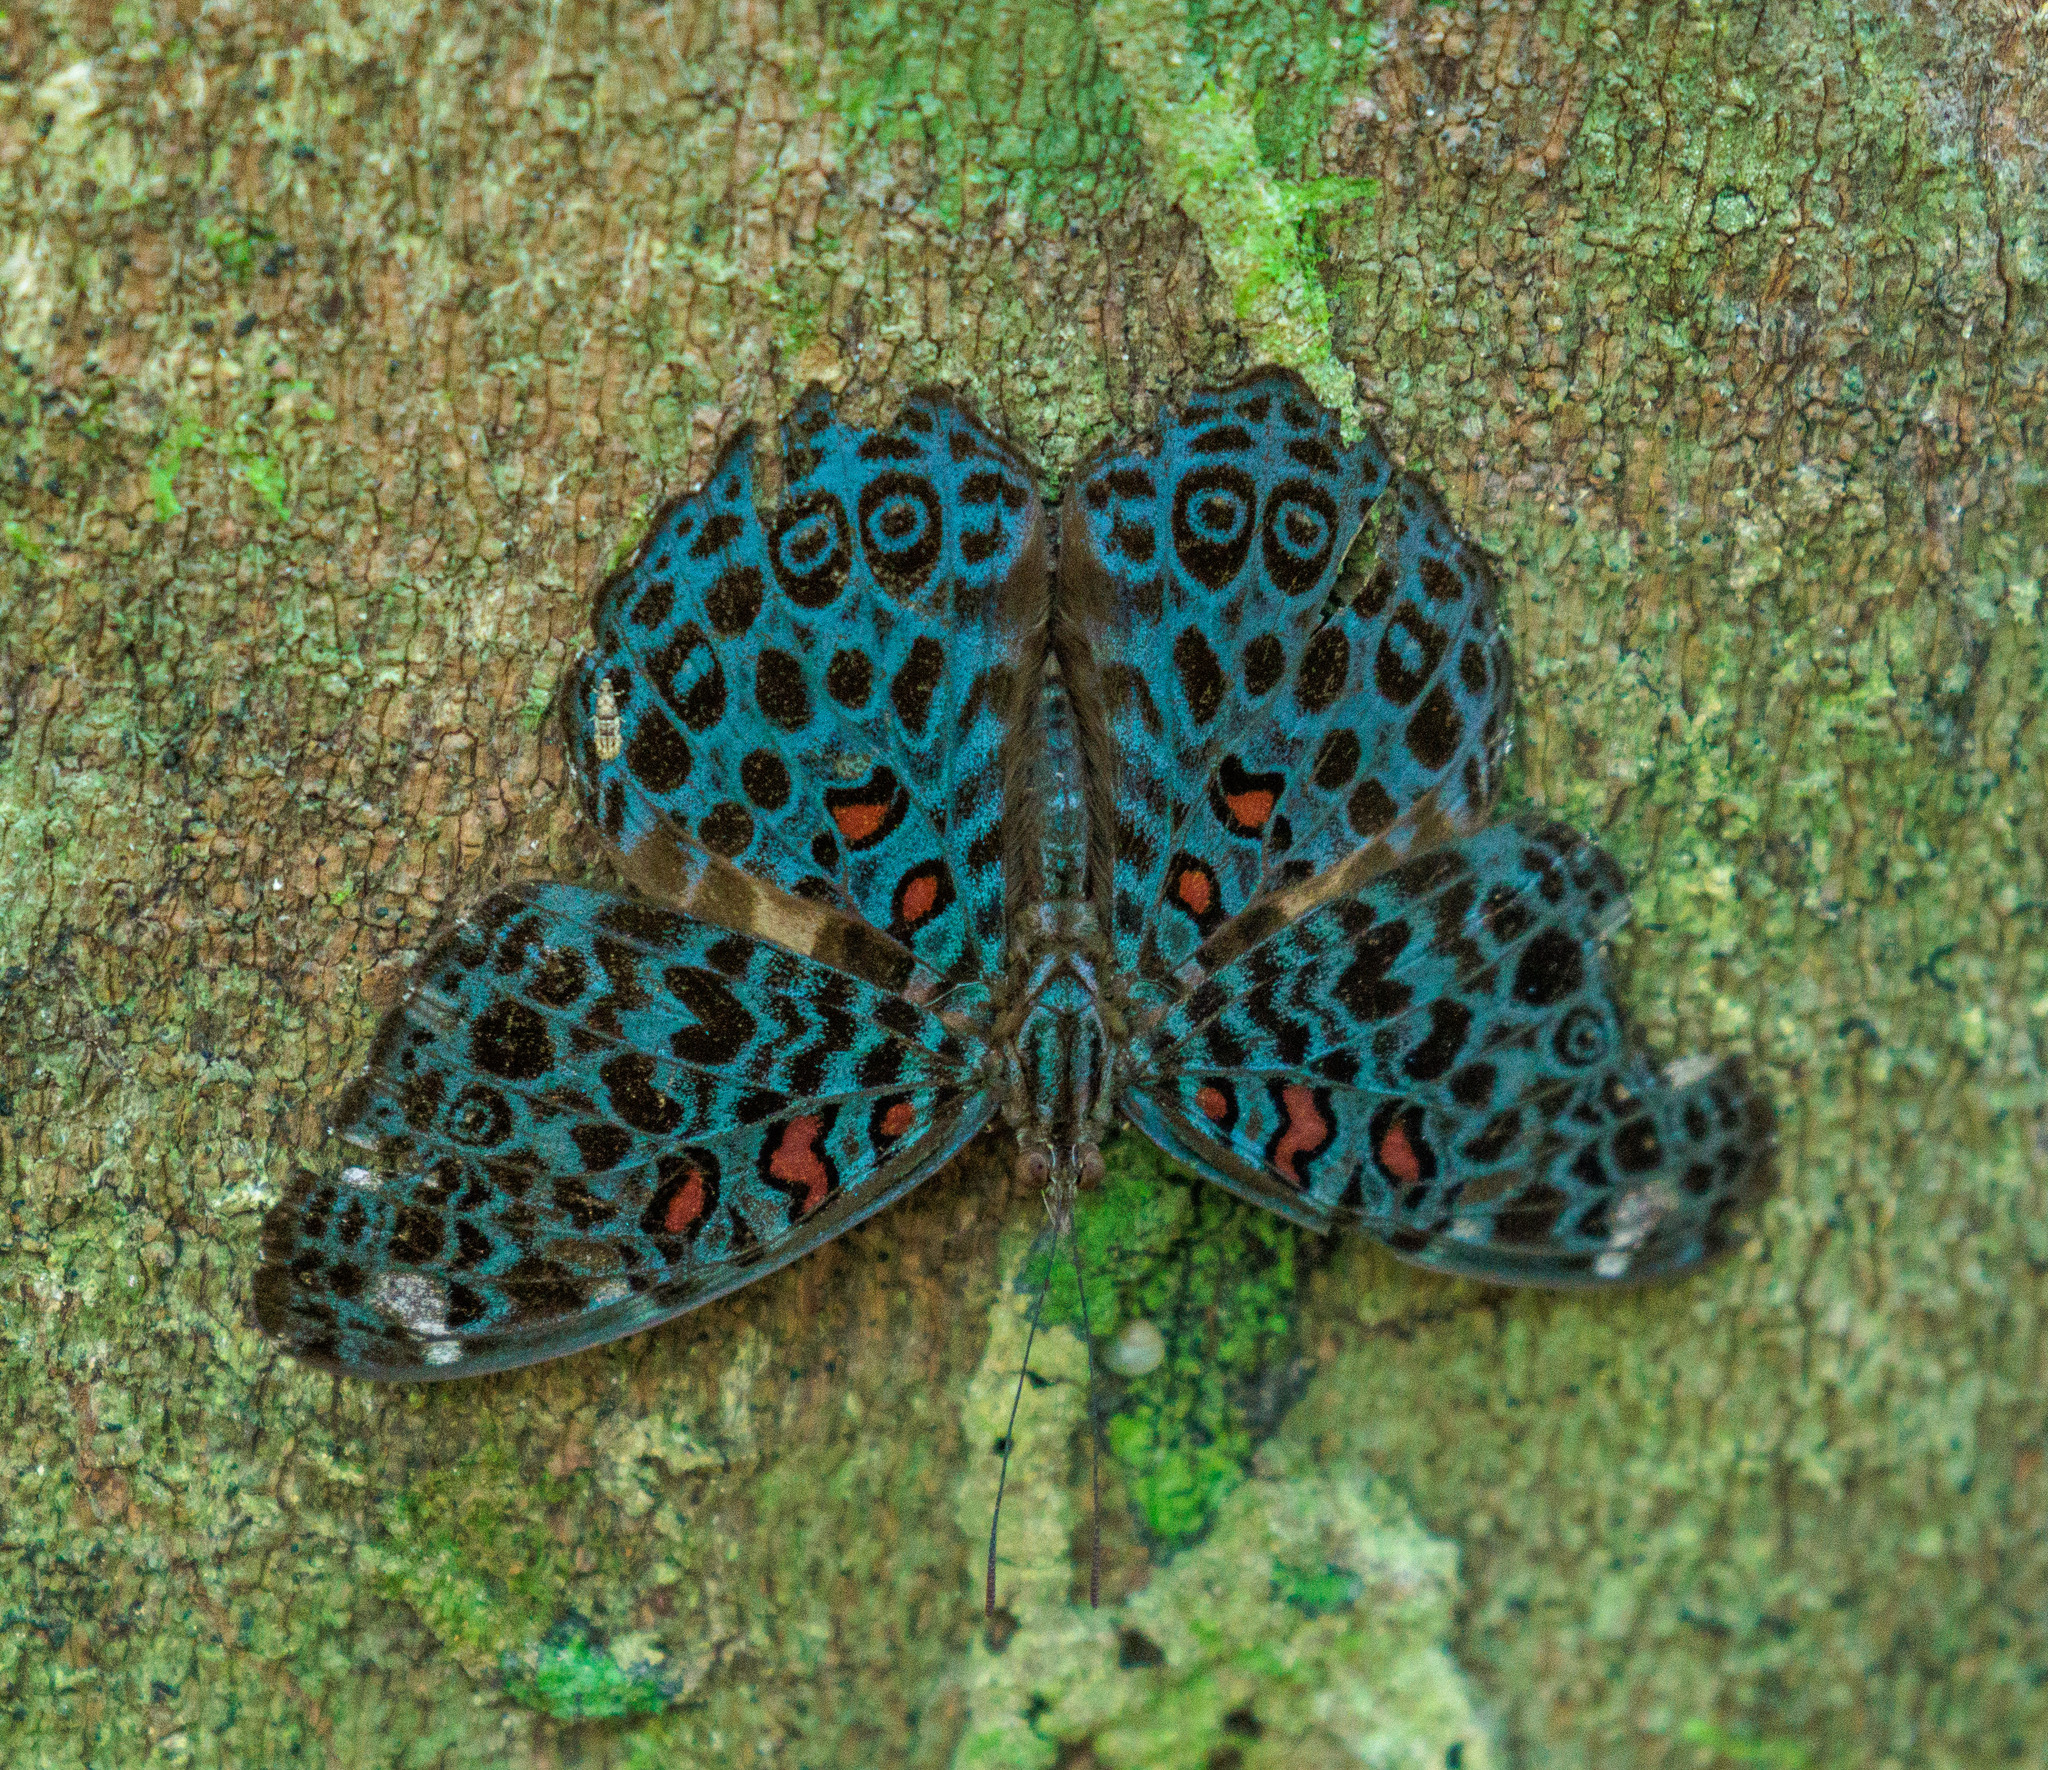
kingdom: Animalia
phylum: Arthropoda
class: Insecta
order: Lepidoptera
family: Nymphalidae
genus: Hamadryas
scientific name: Hamadryas chloe
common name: Amazon cracker
